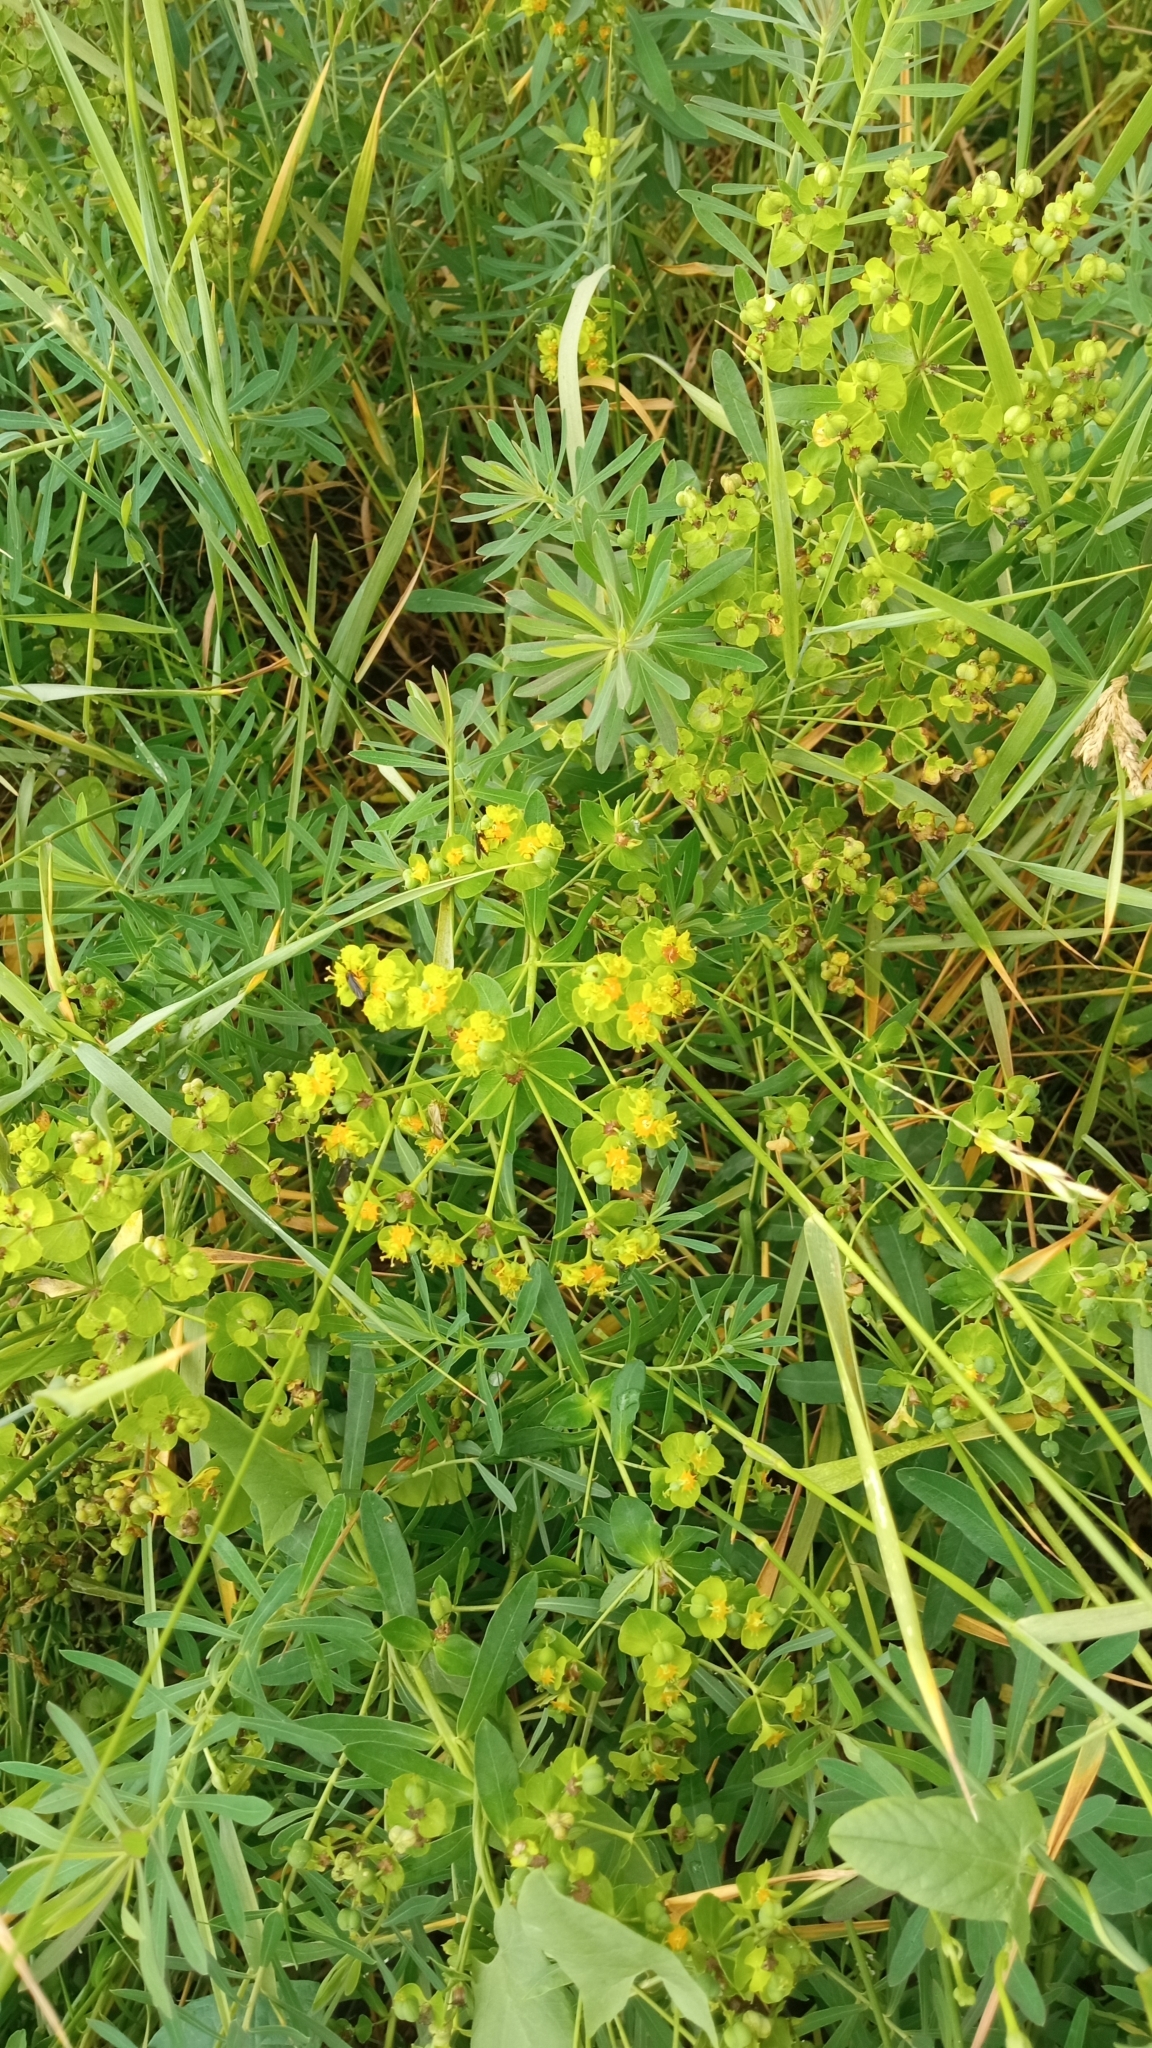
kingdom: Plantae
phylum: Tracheophyta
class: Magnoliopsida
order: Malpighiales
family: Euphorbiaceae
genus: Euphorbia
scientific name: Euphorbia virgata
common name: Leafy spurge
